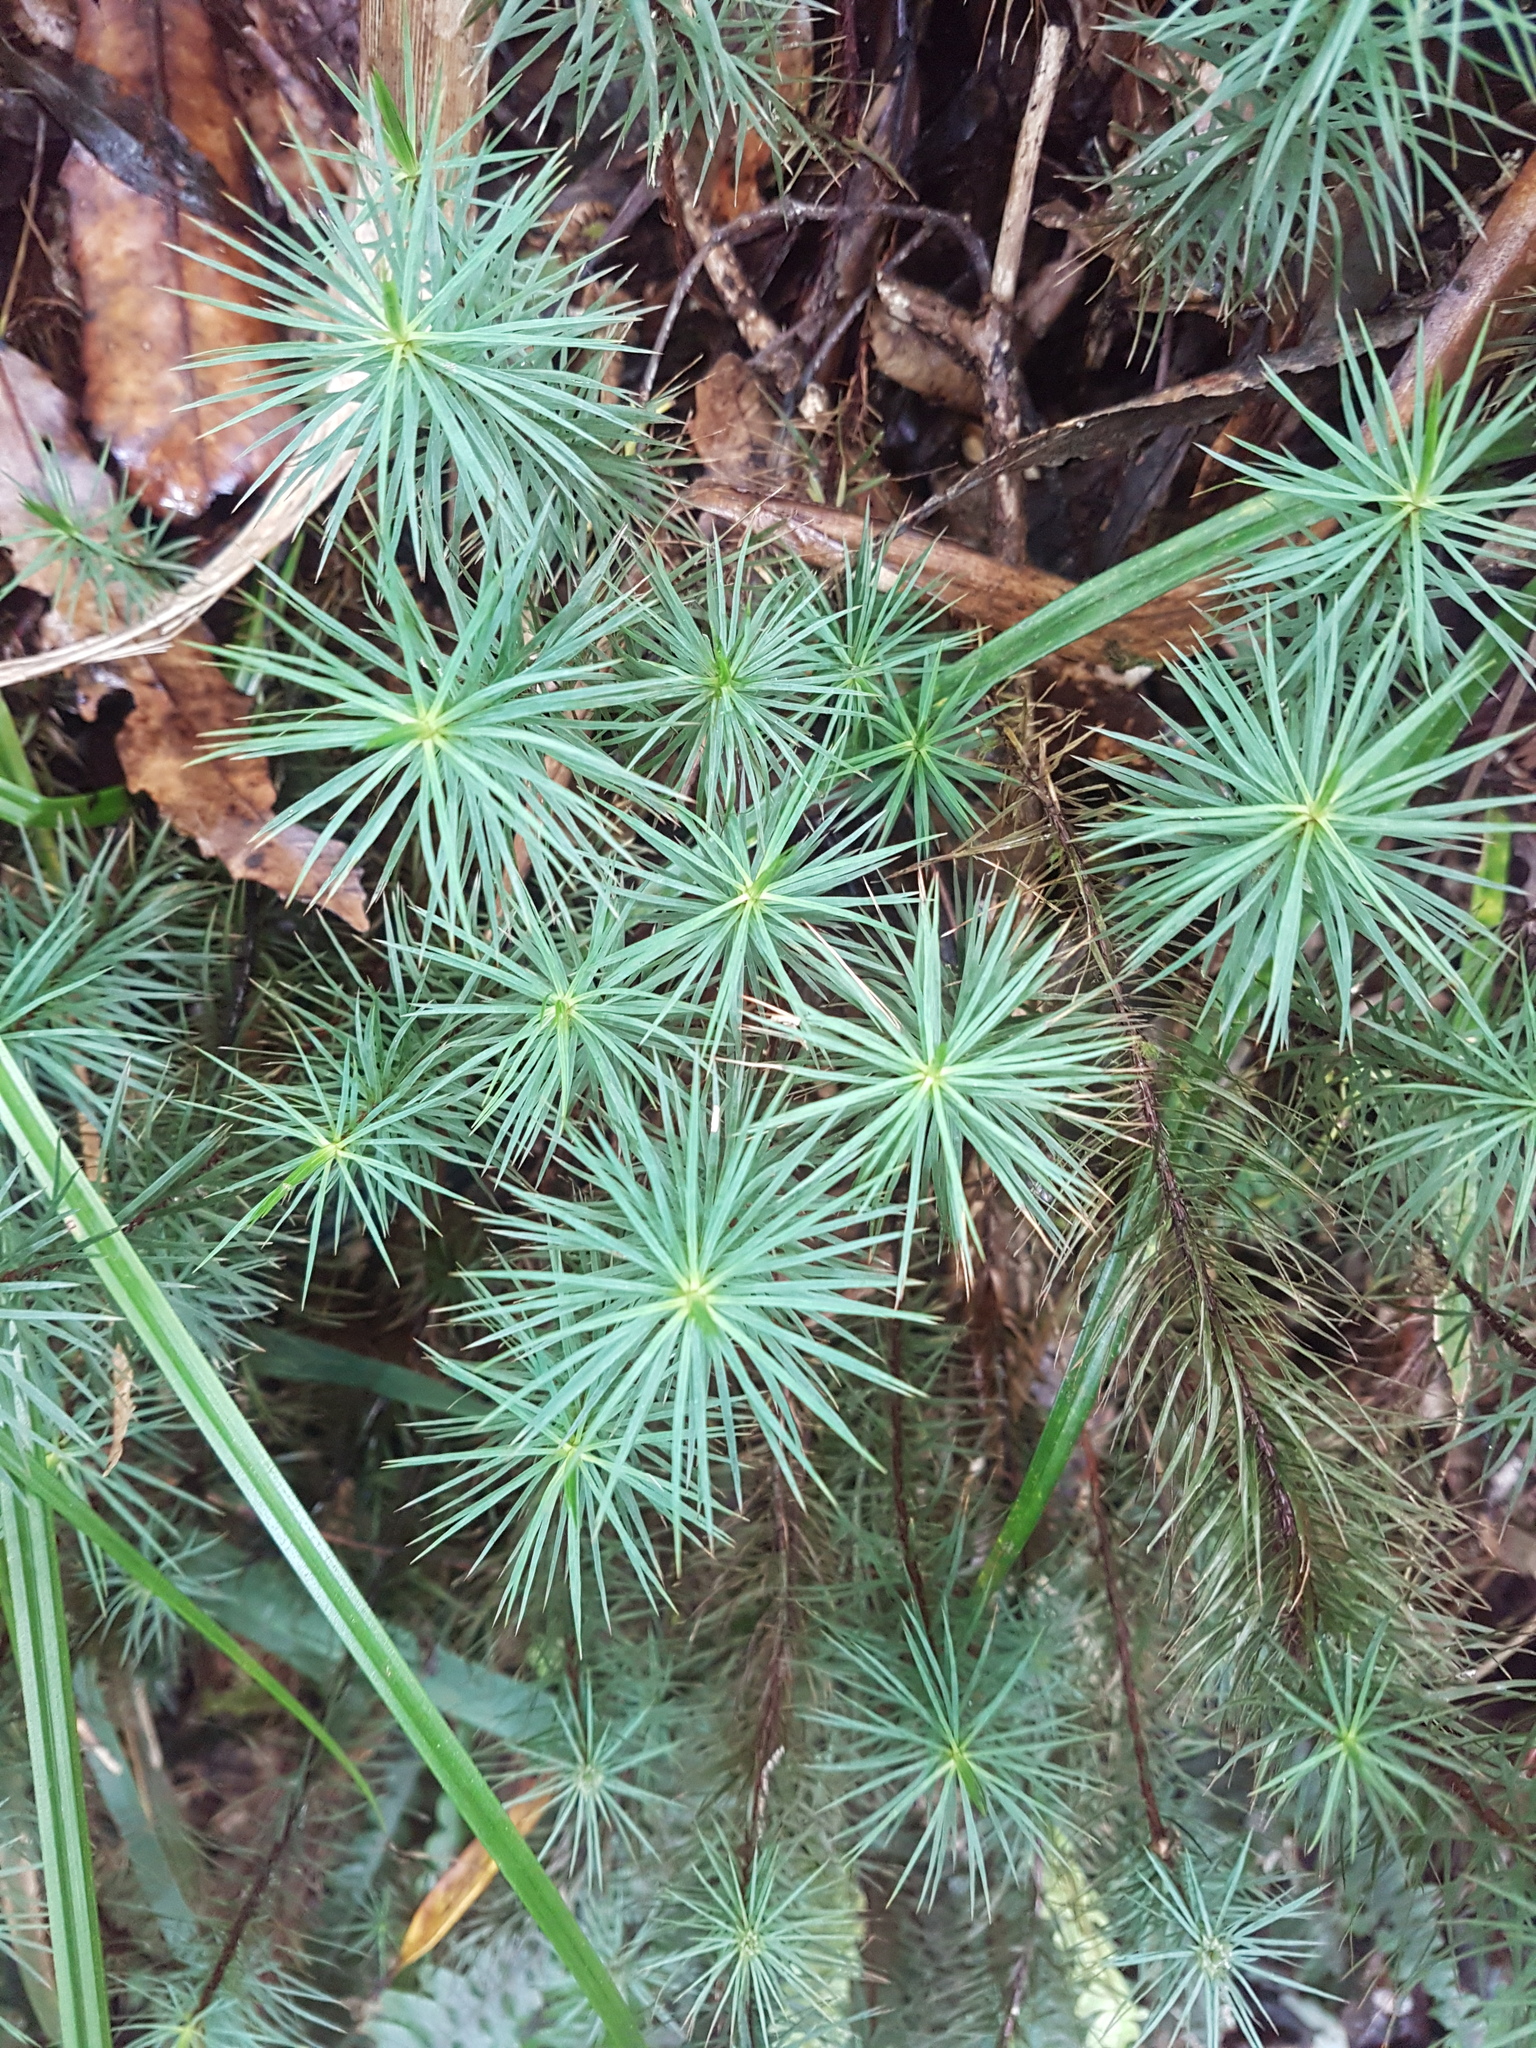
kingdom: Plantae
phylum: Bryophyta
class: Polytrichopsida
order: Polytrichales
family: Polytrichaceae
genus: Dawsonia
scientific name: Dawsonia superba
